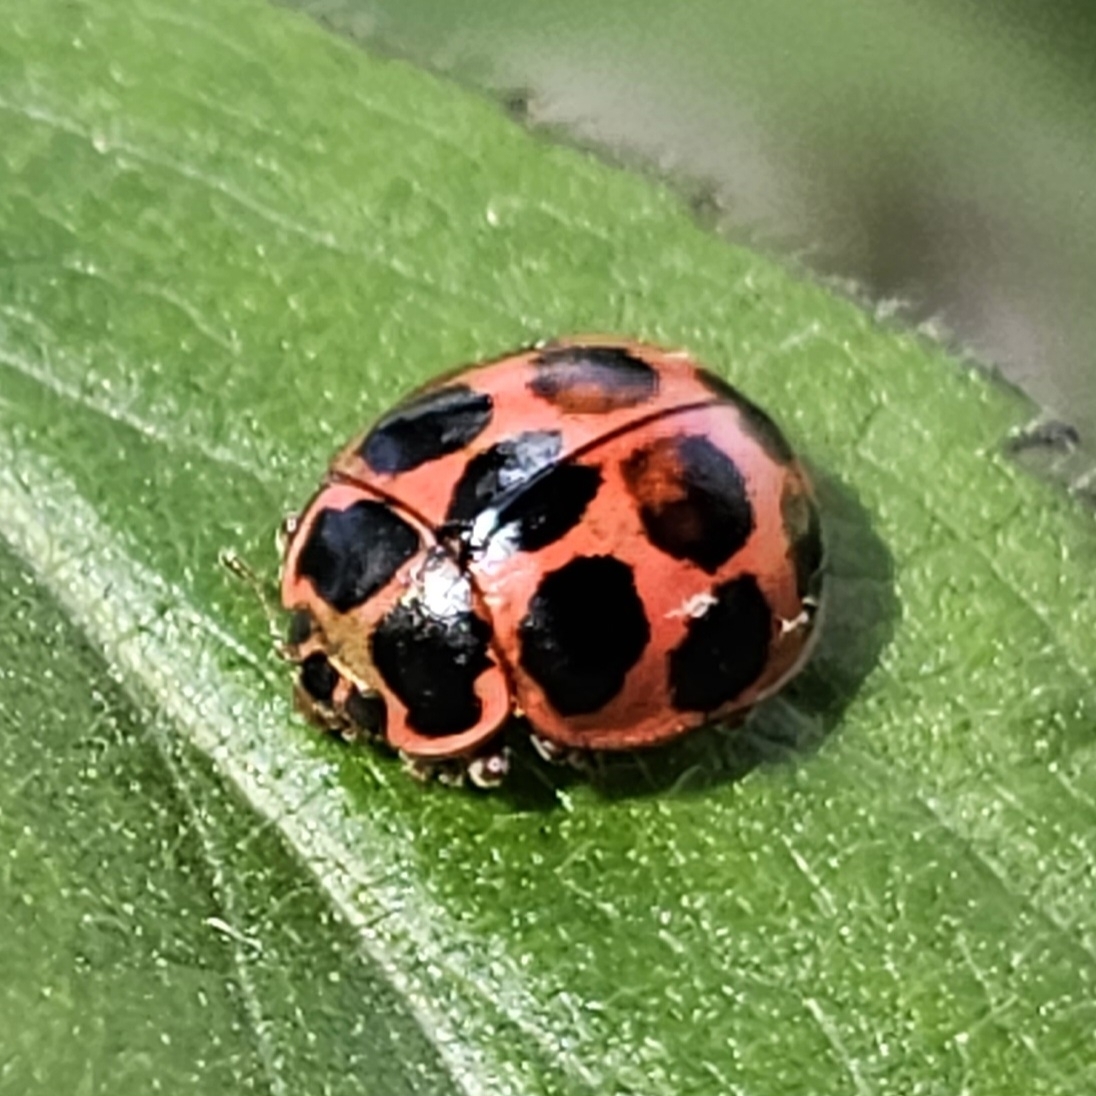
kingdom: Animalia
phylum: Arthropoda
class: Insecta
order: Coleoptera
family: Coccinellidae
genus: Calvia
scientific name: Calvia quatuordecimguttata
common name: Cream-spot ladybird
